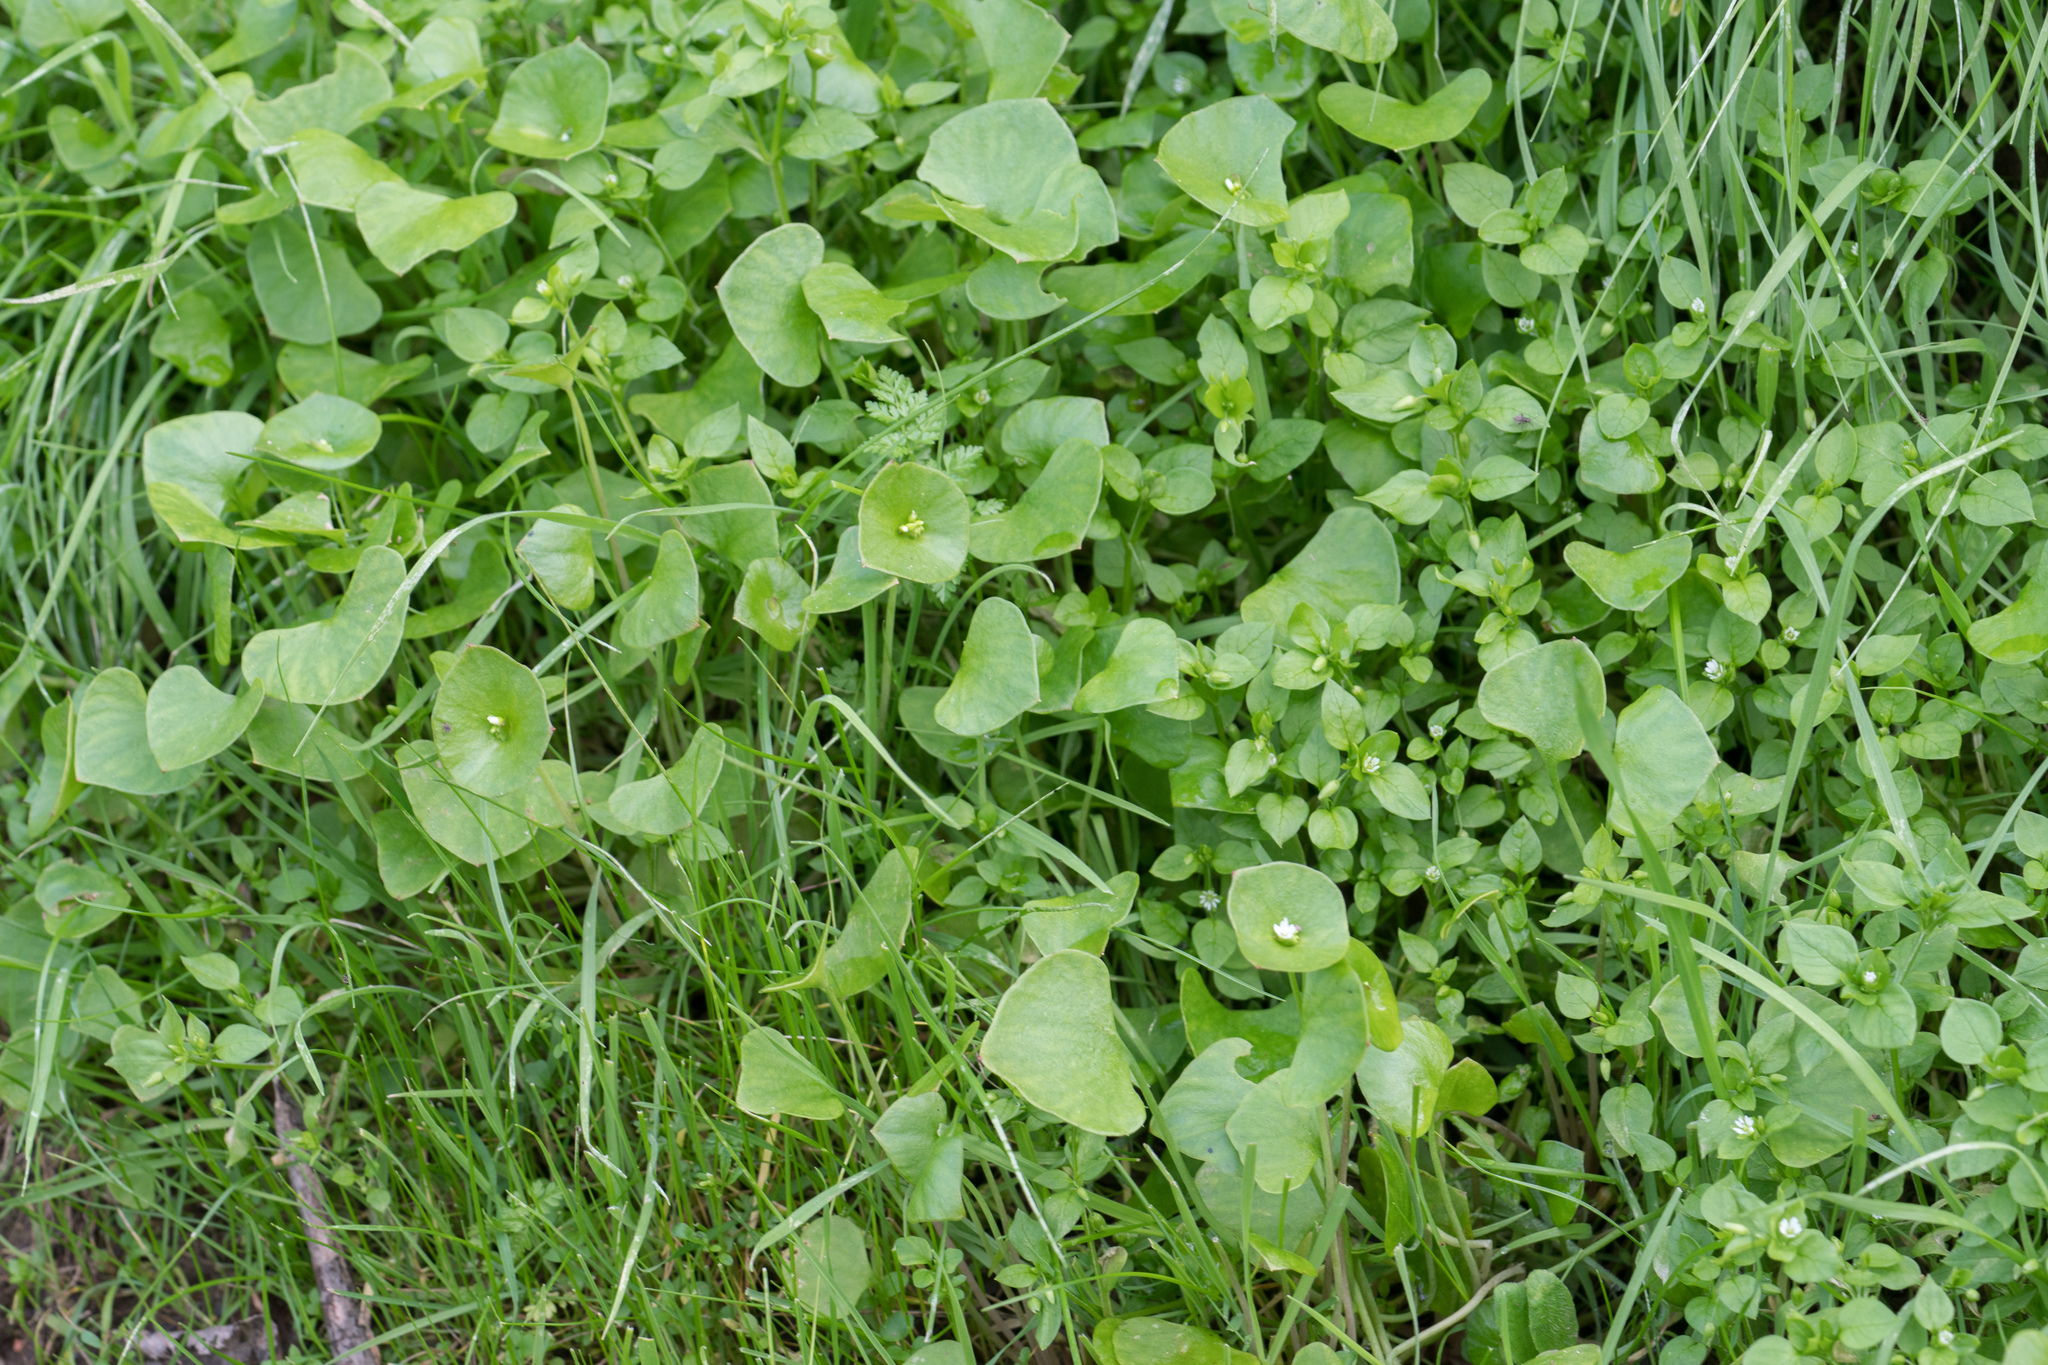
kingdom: Plantae
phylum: Tracheophyta
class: Magnoliopsida
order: Caryophyllales
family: Montiaceae
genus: Claytonia
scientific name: Claytonia perfoliata
